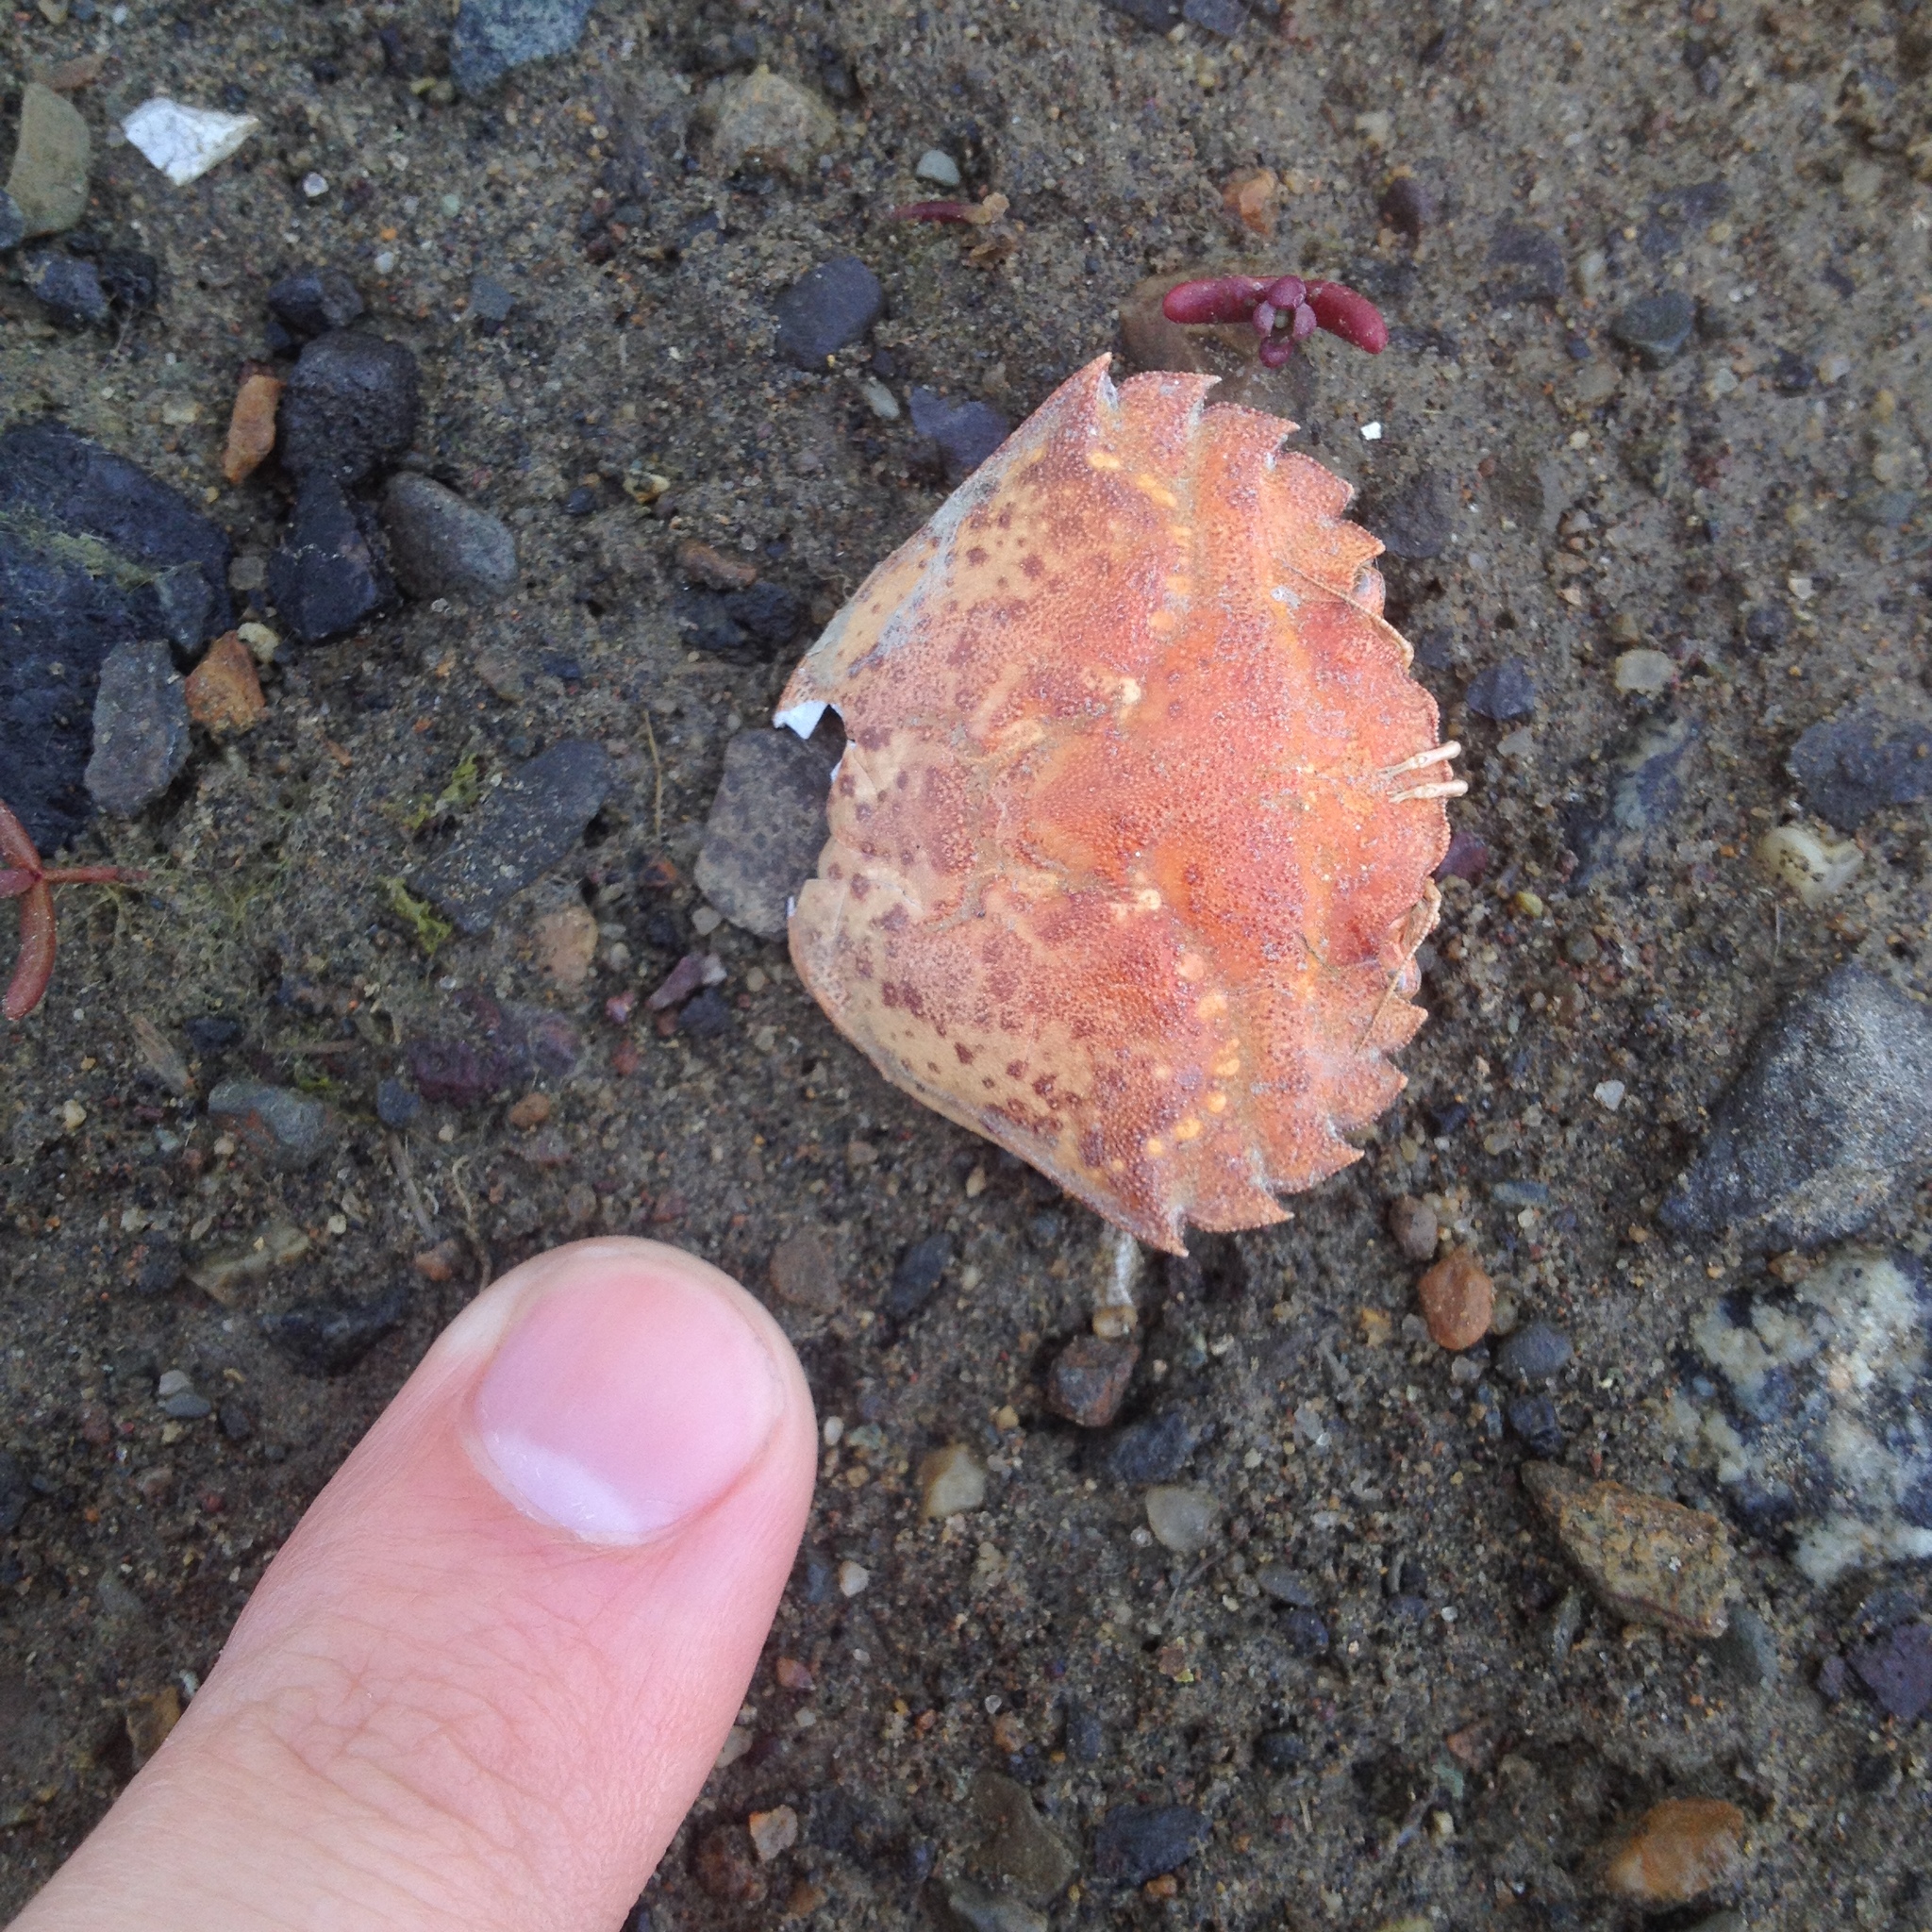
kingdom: Animalia
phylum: Arthropoda
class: Malacostraca
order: Decapoda
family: Carcinidae
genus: Carcinus
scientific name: Carcinus maenas
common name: European green crab
